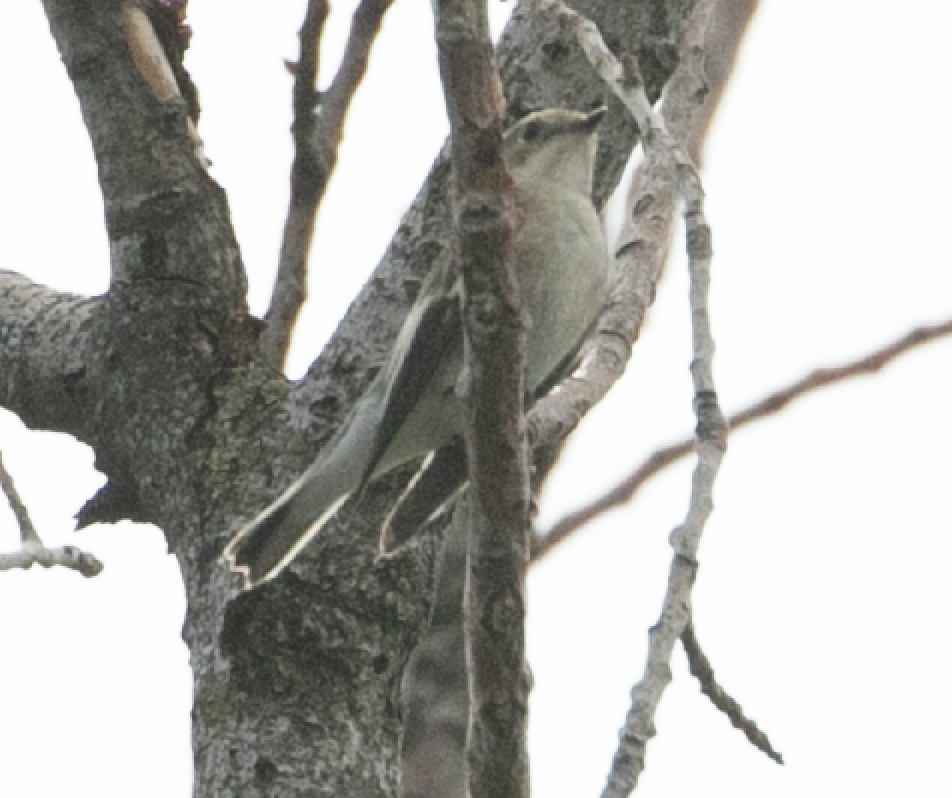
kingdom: Animalia
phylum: Chordata
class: Aves
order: Passeriformes
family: Muscicapidae
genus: Ficedula
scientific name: Ficedula hypoleuca
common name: European pied flycatcher
